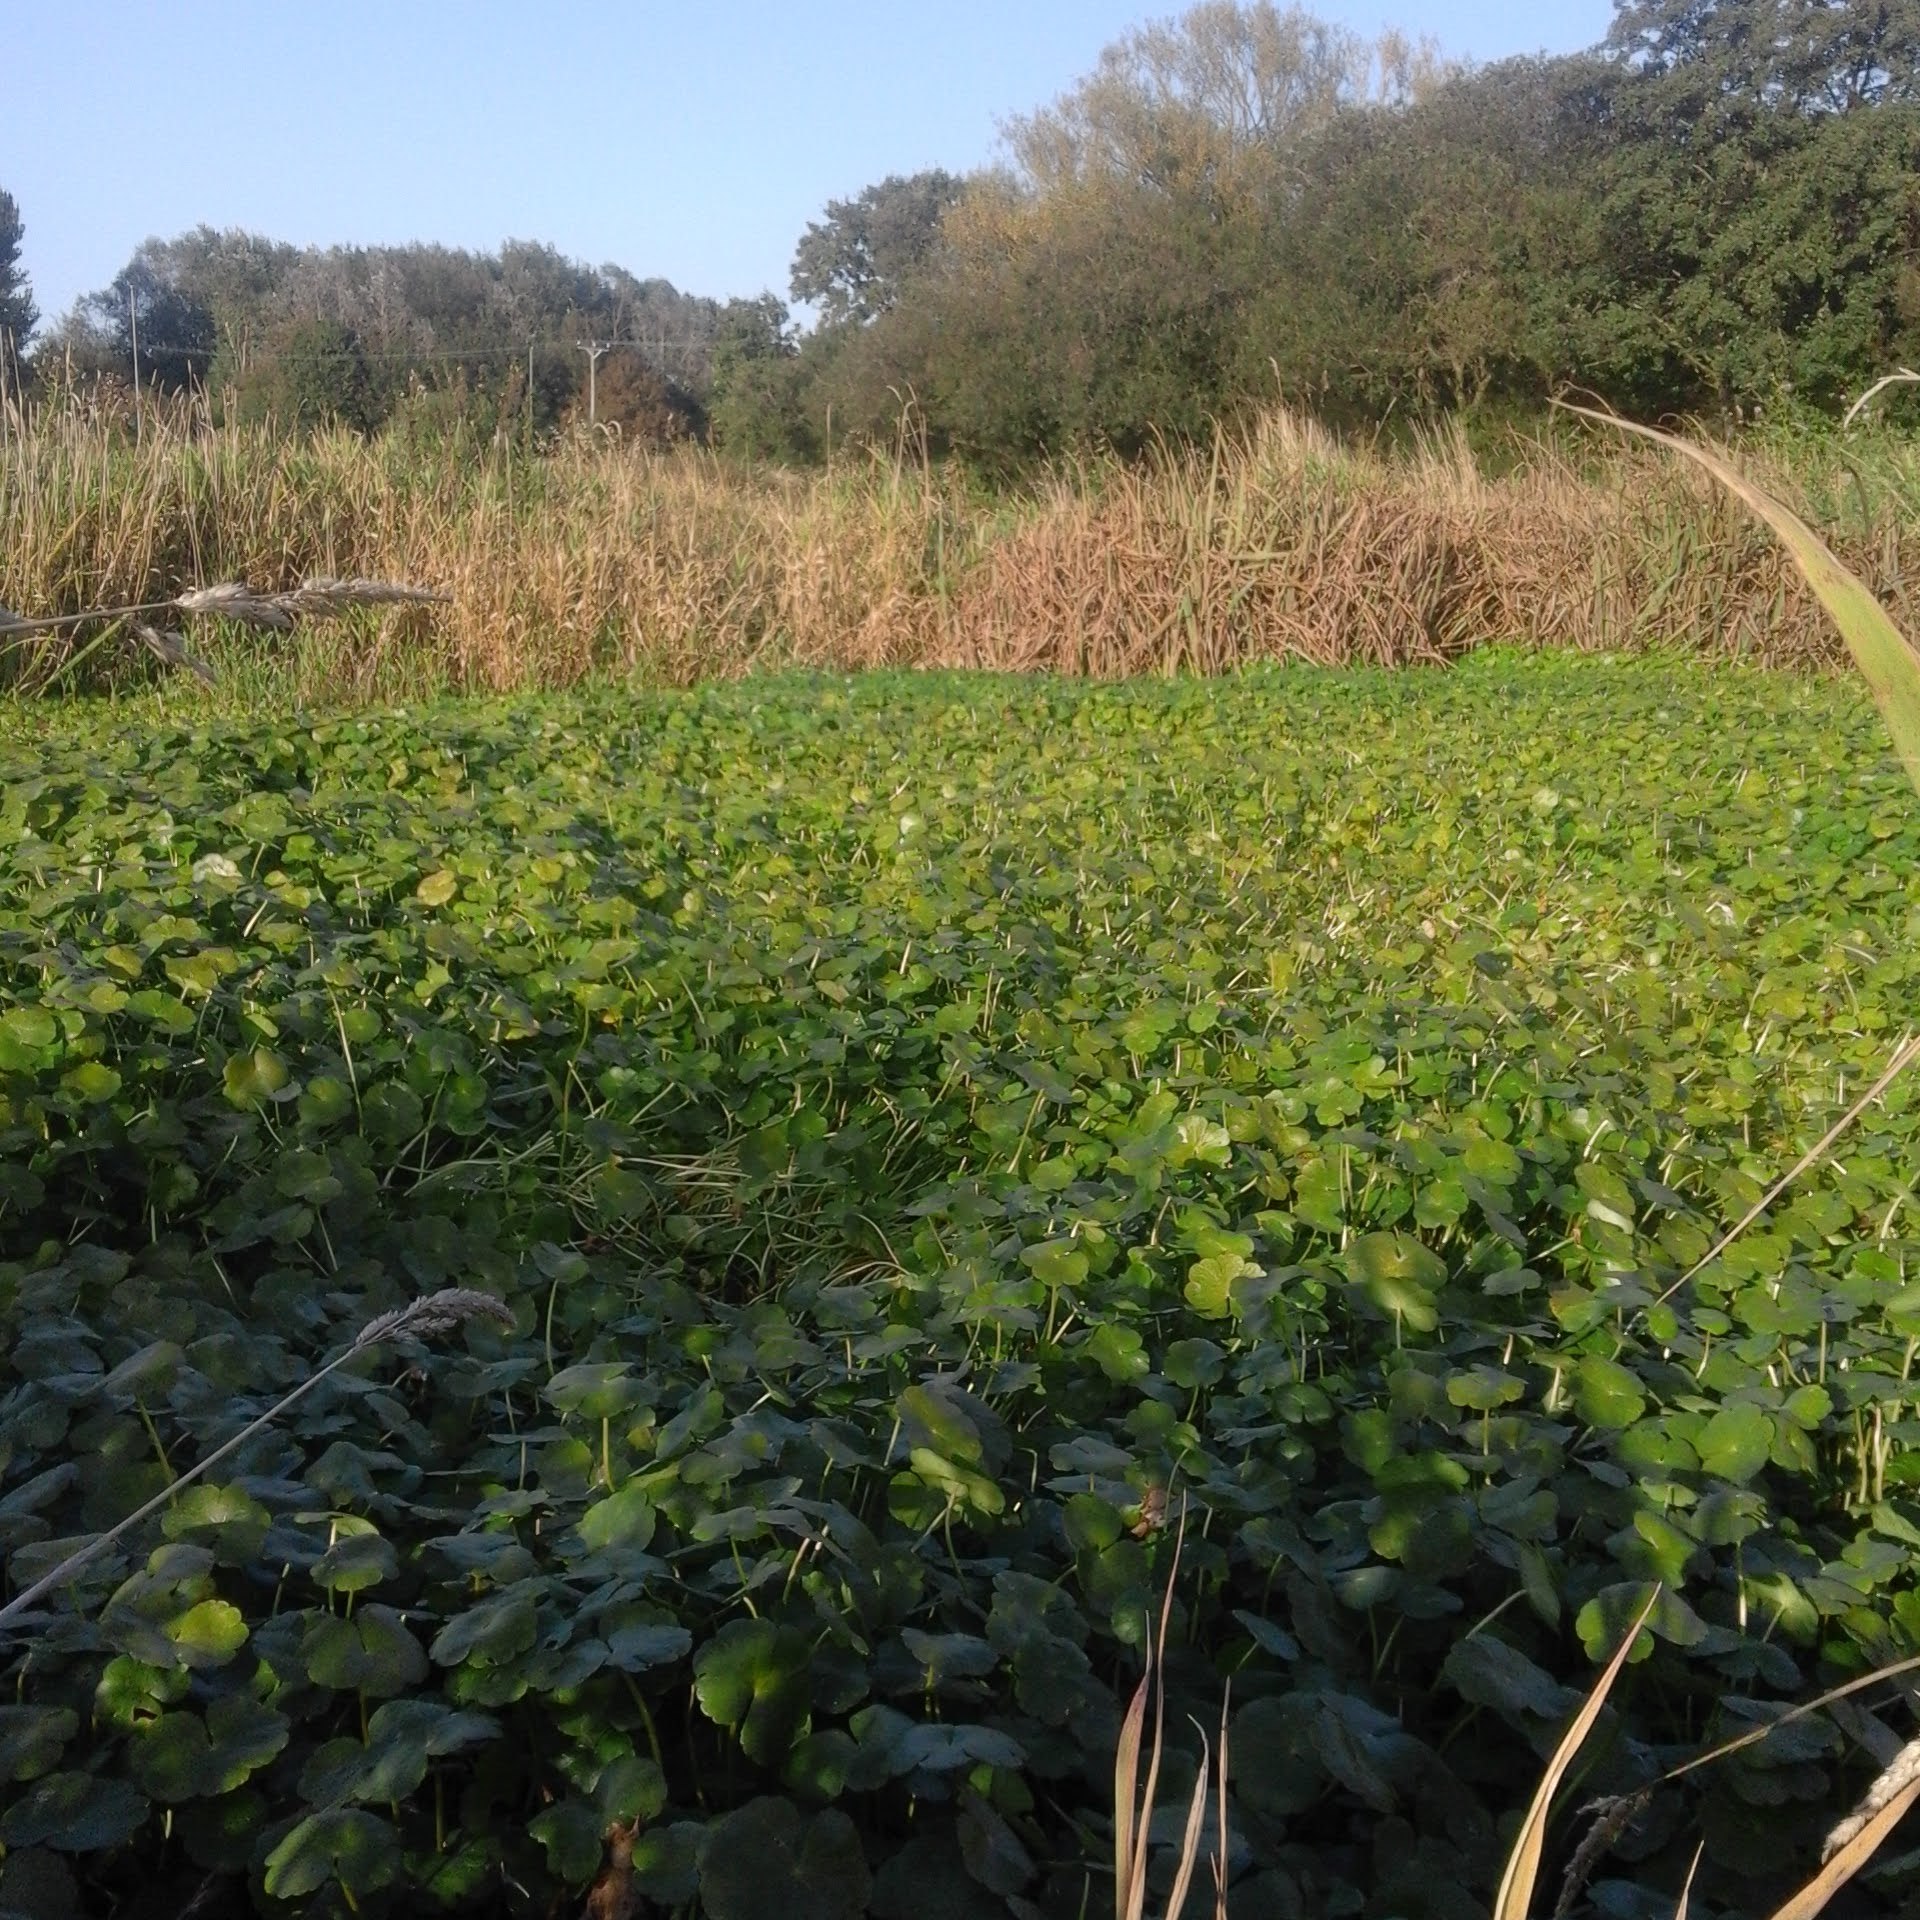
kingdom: Plantae
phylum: Tracheophyta
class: Magnoliopsida
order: Apiales
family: Araliaceae
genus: Hydrocotyle
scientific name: Hydrocotyle ranunculoides
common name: Floating pennywort
